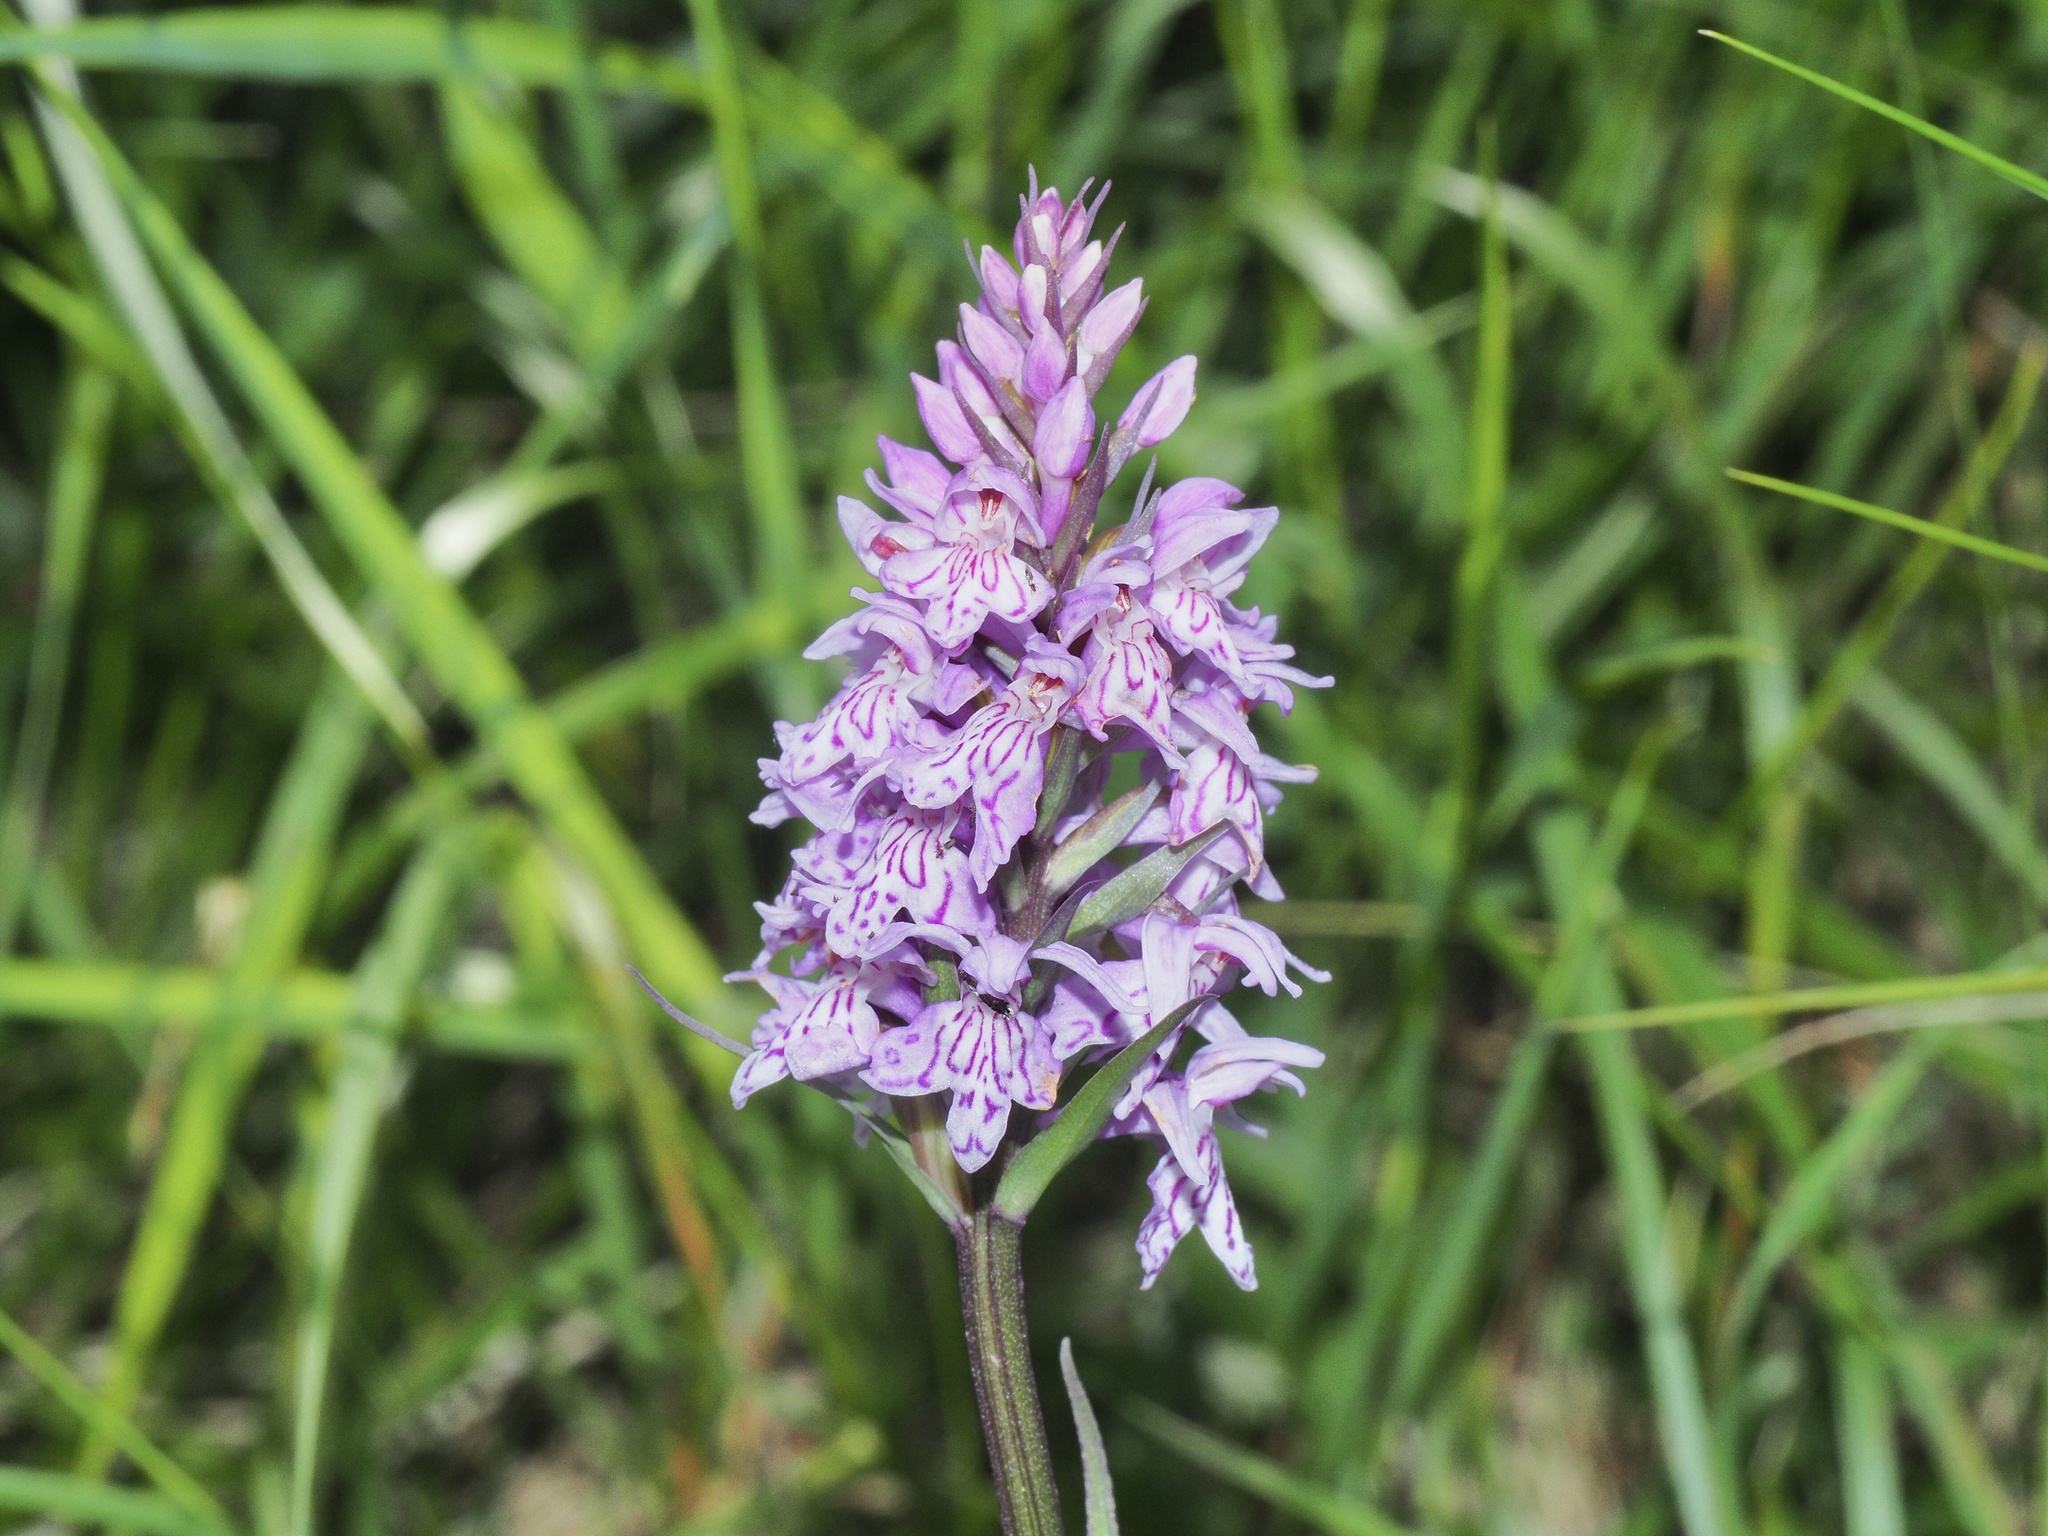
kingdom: Plantae
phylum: Tracheophyta
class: Liliopsida
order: Asparagales
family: Orchidaceae
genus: Dactylorhiza
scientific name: Dactylorhiza maculata
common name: Heath spotted-orchid
